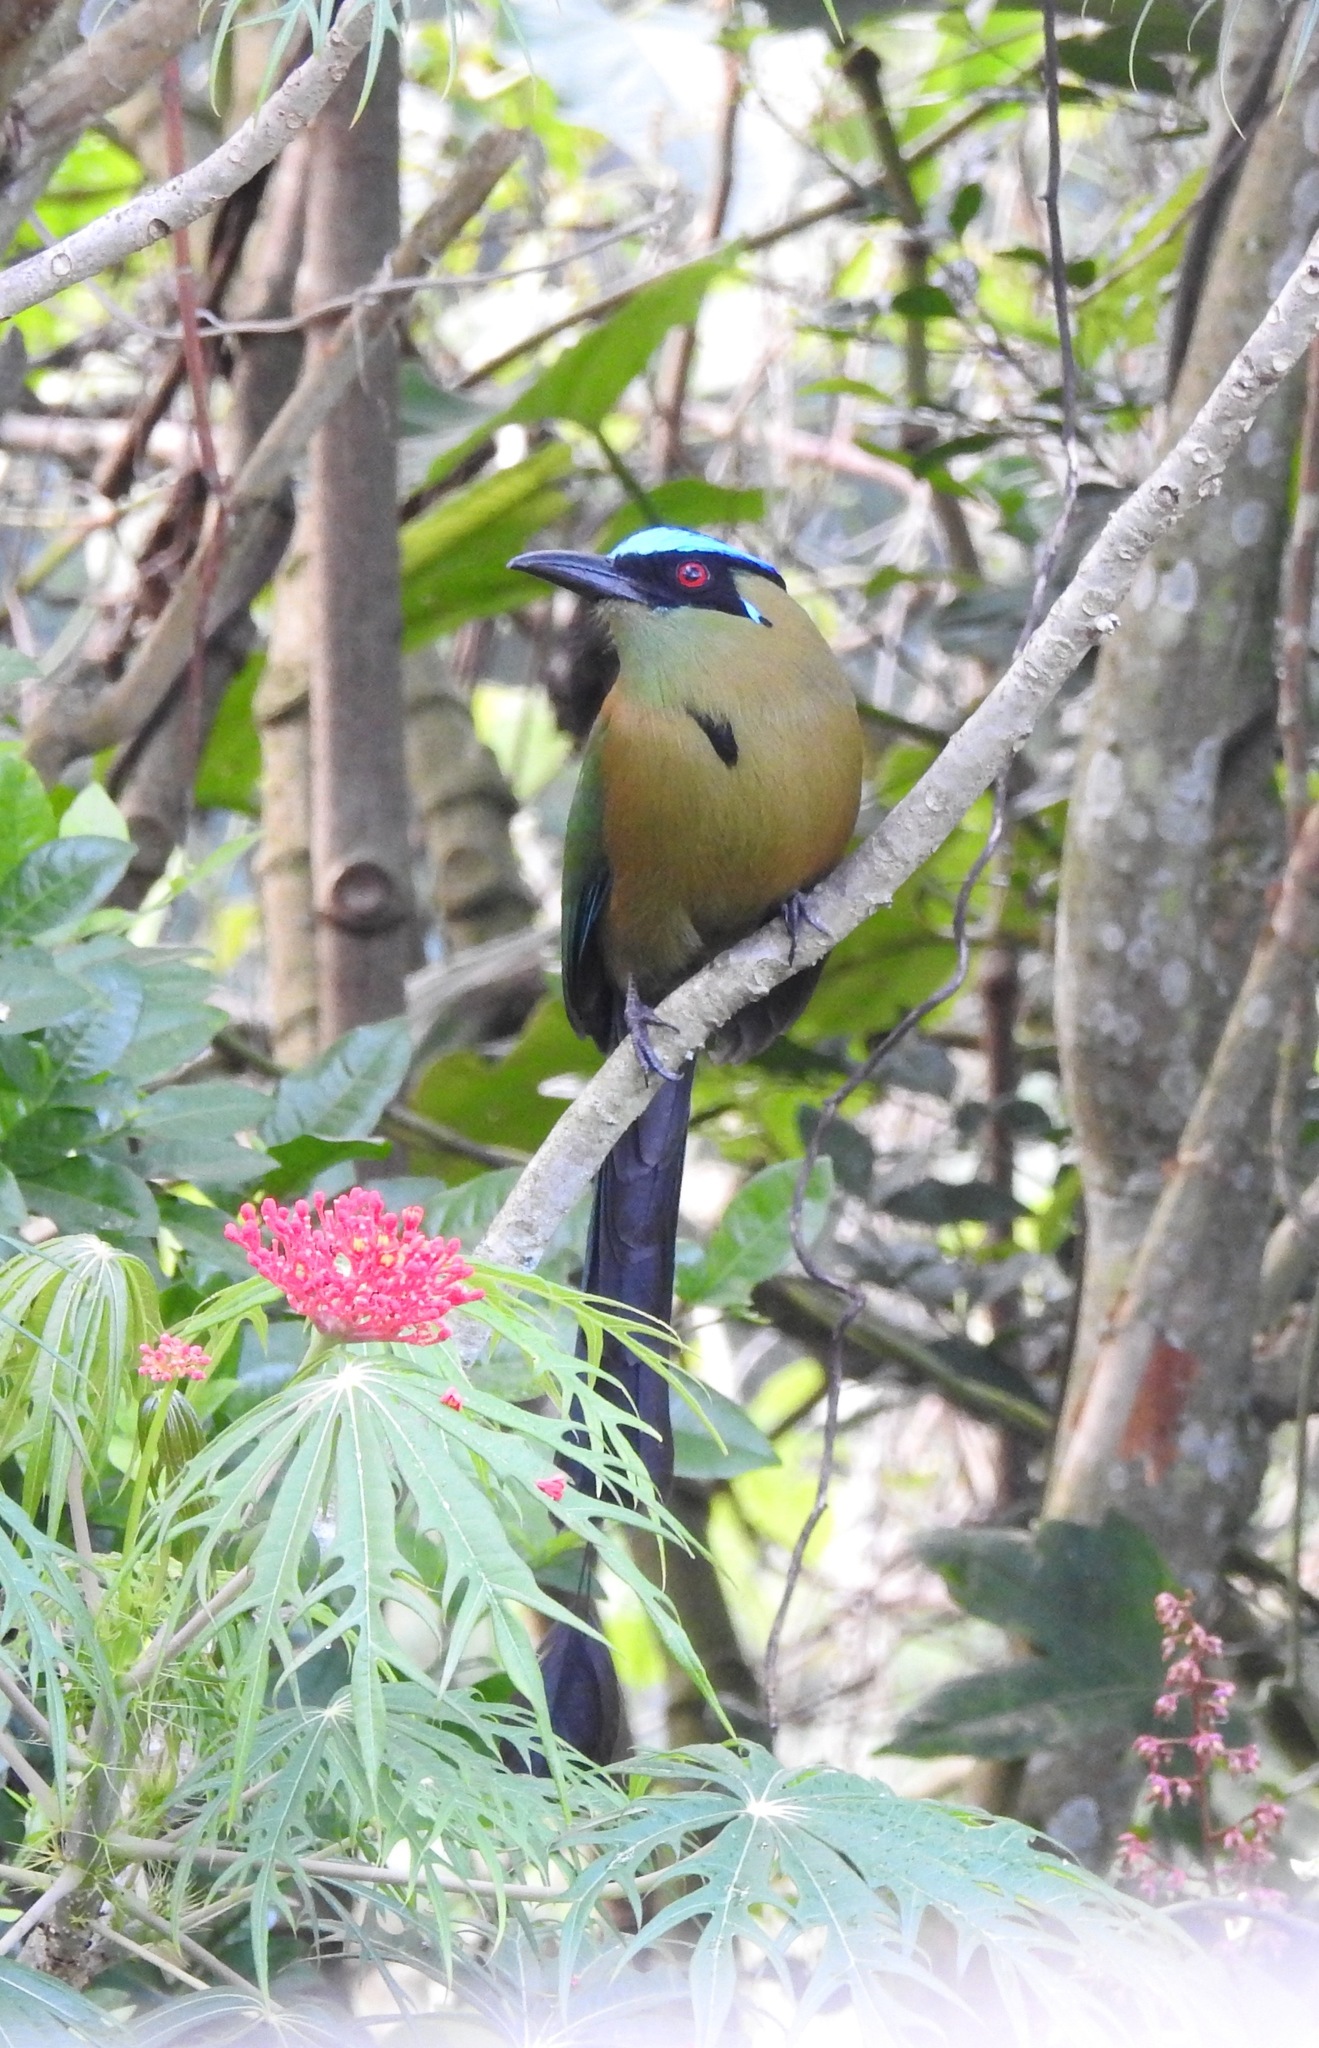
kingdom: Animalia
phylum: Chordata
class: Aves
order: Coraciiformes
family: Momotidae
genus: Momotus
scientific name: Momotus aequatorialis
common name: Andean motmot
